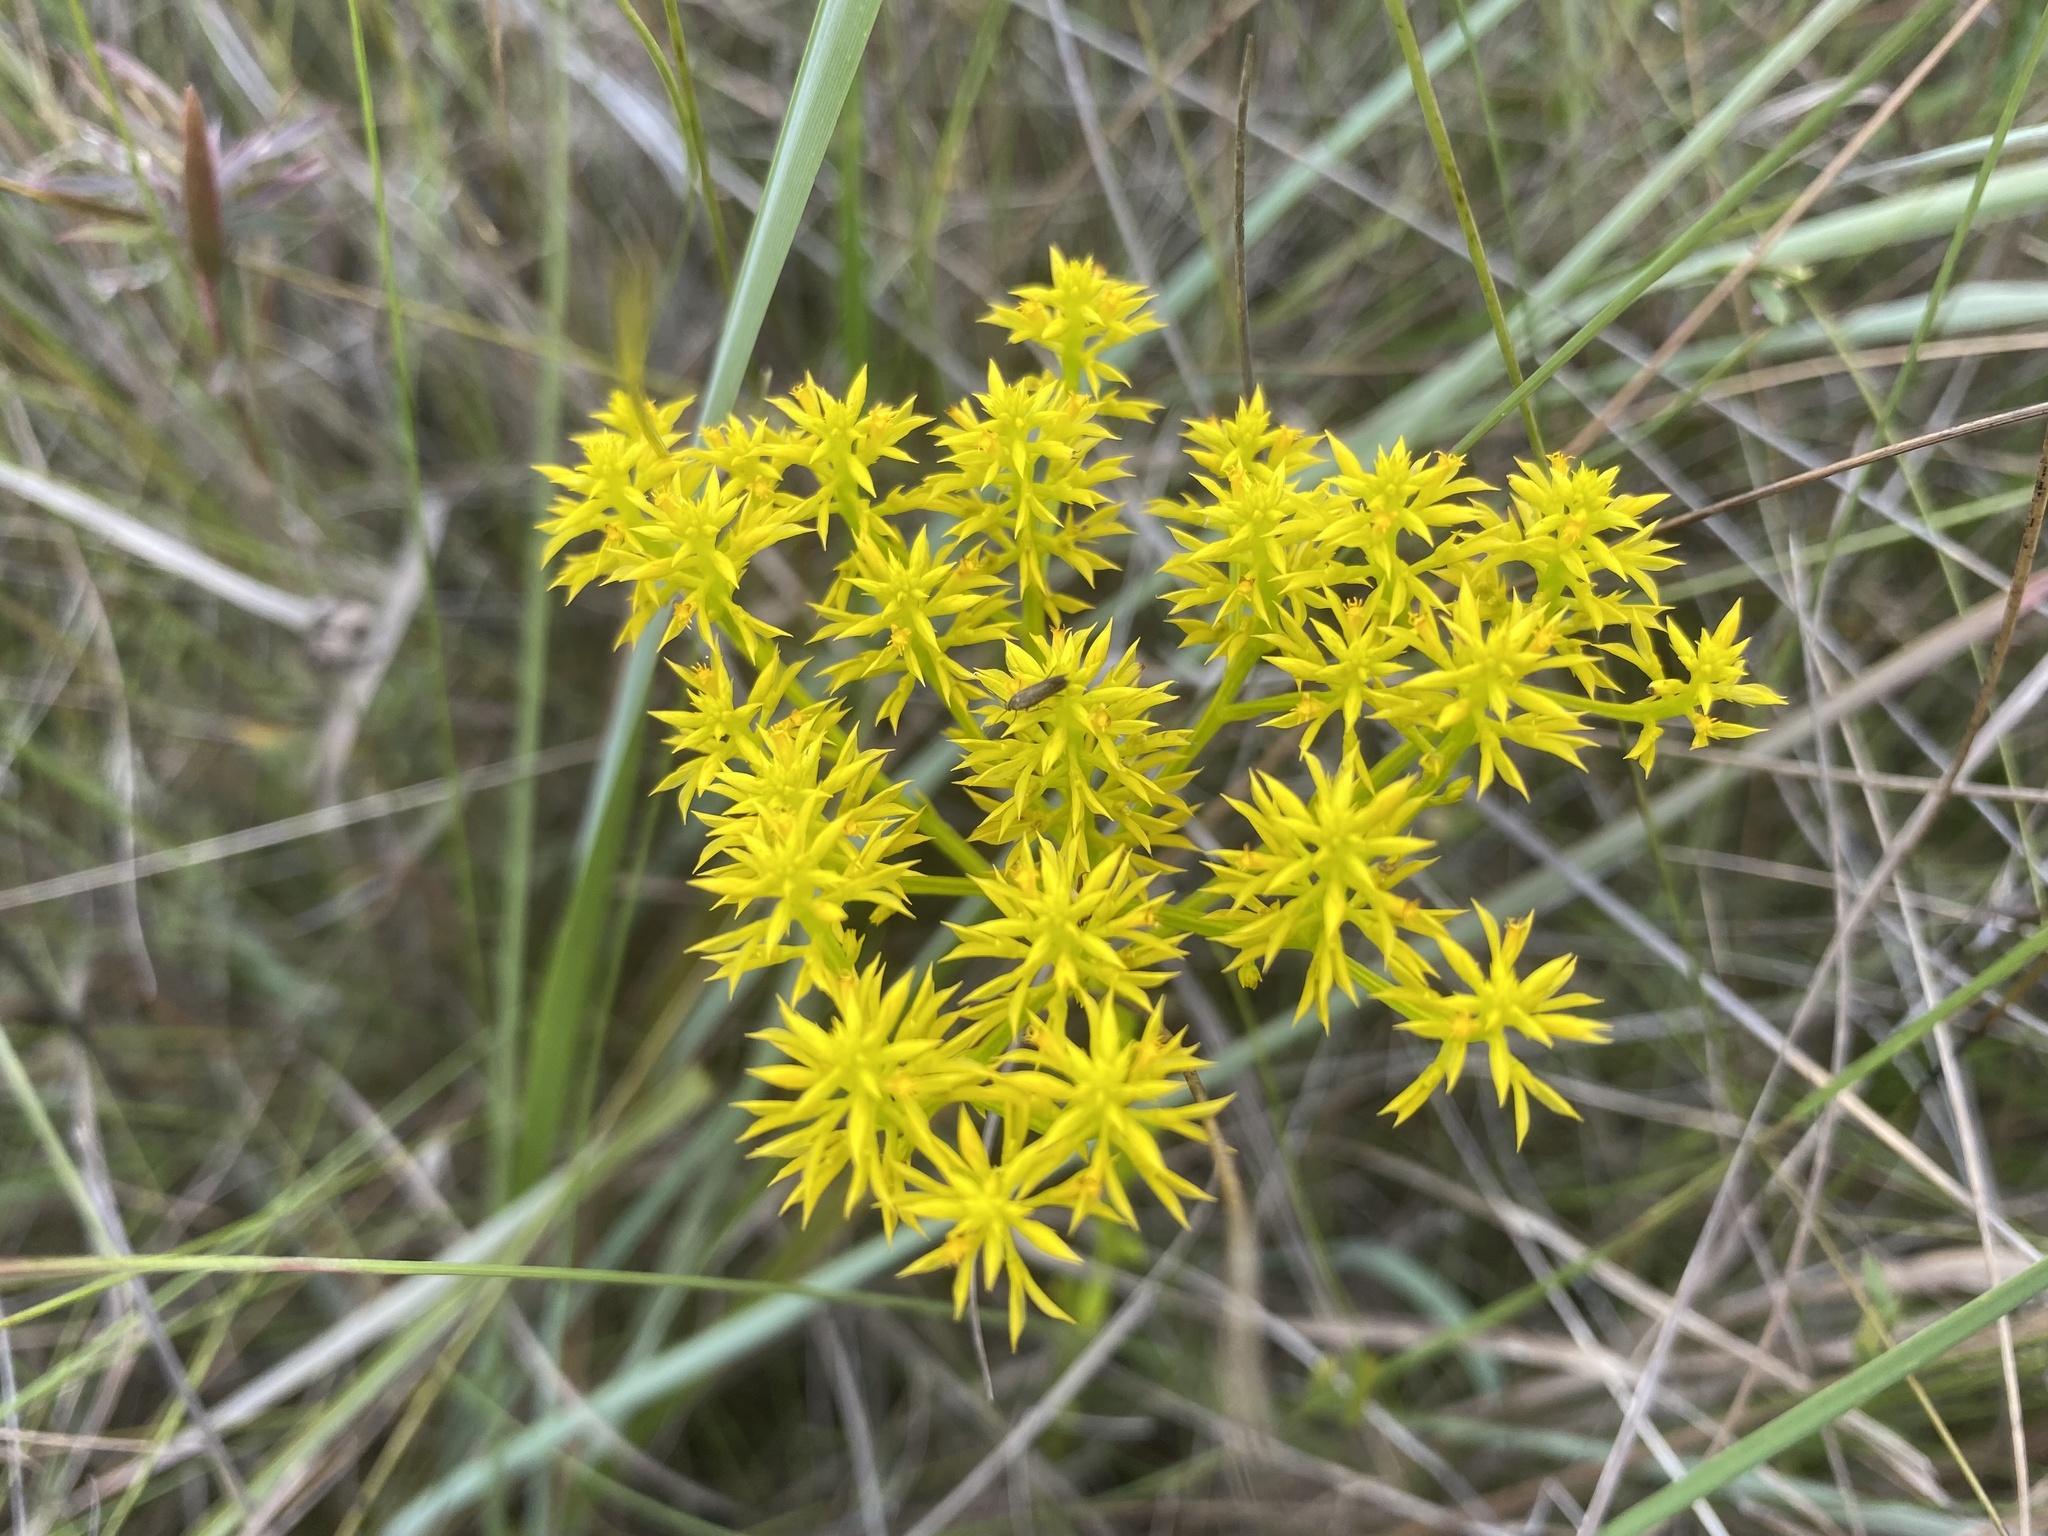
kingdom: Plantae
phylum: Tracheophyta
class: Magnoliopsida
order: Fabales
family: Polygalaceae
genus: Polygala
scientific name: Polygala ramosa
